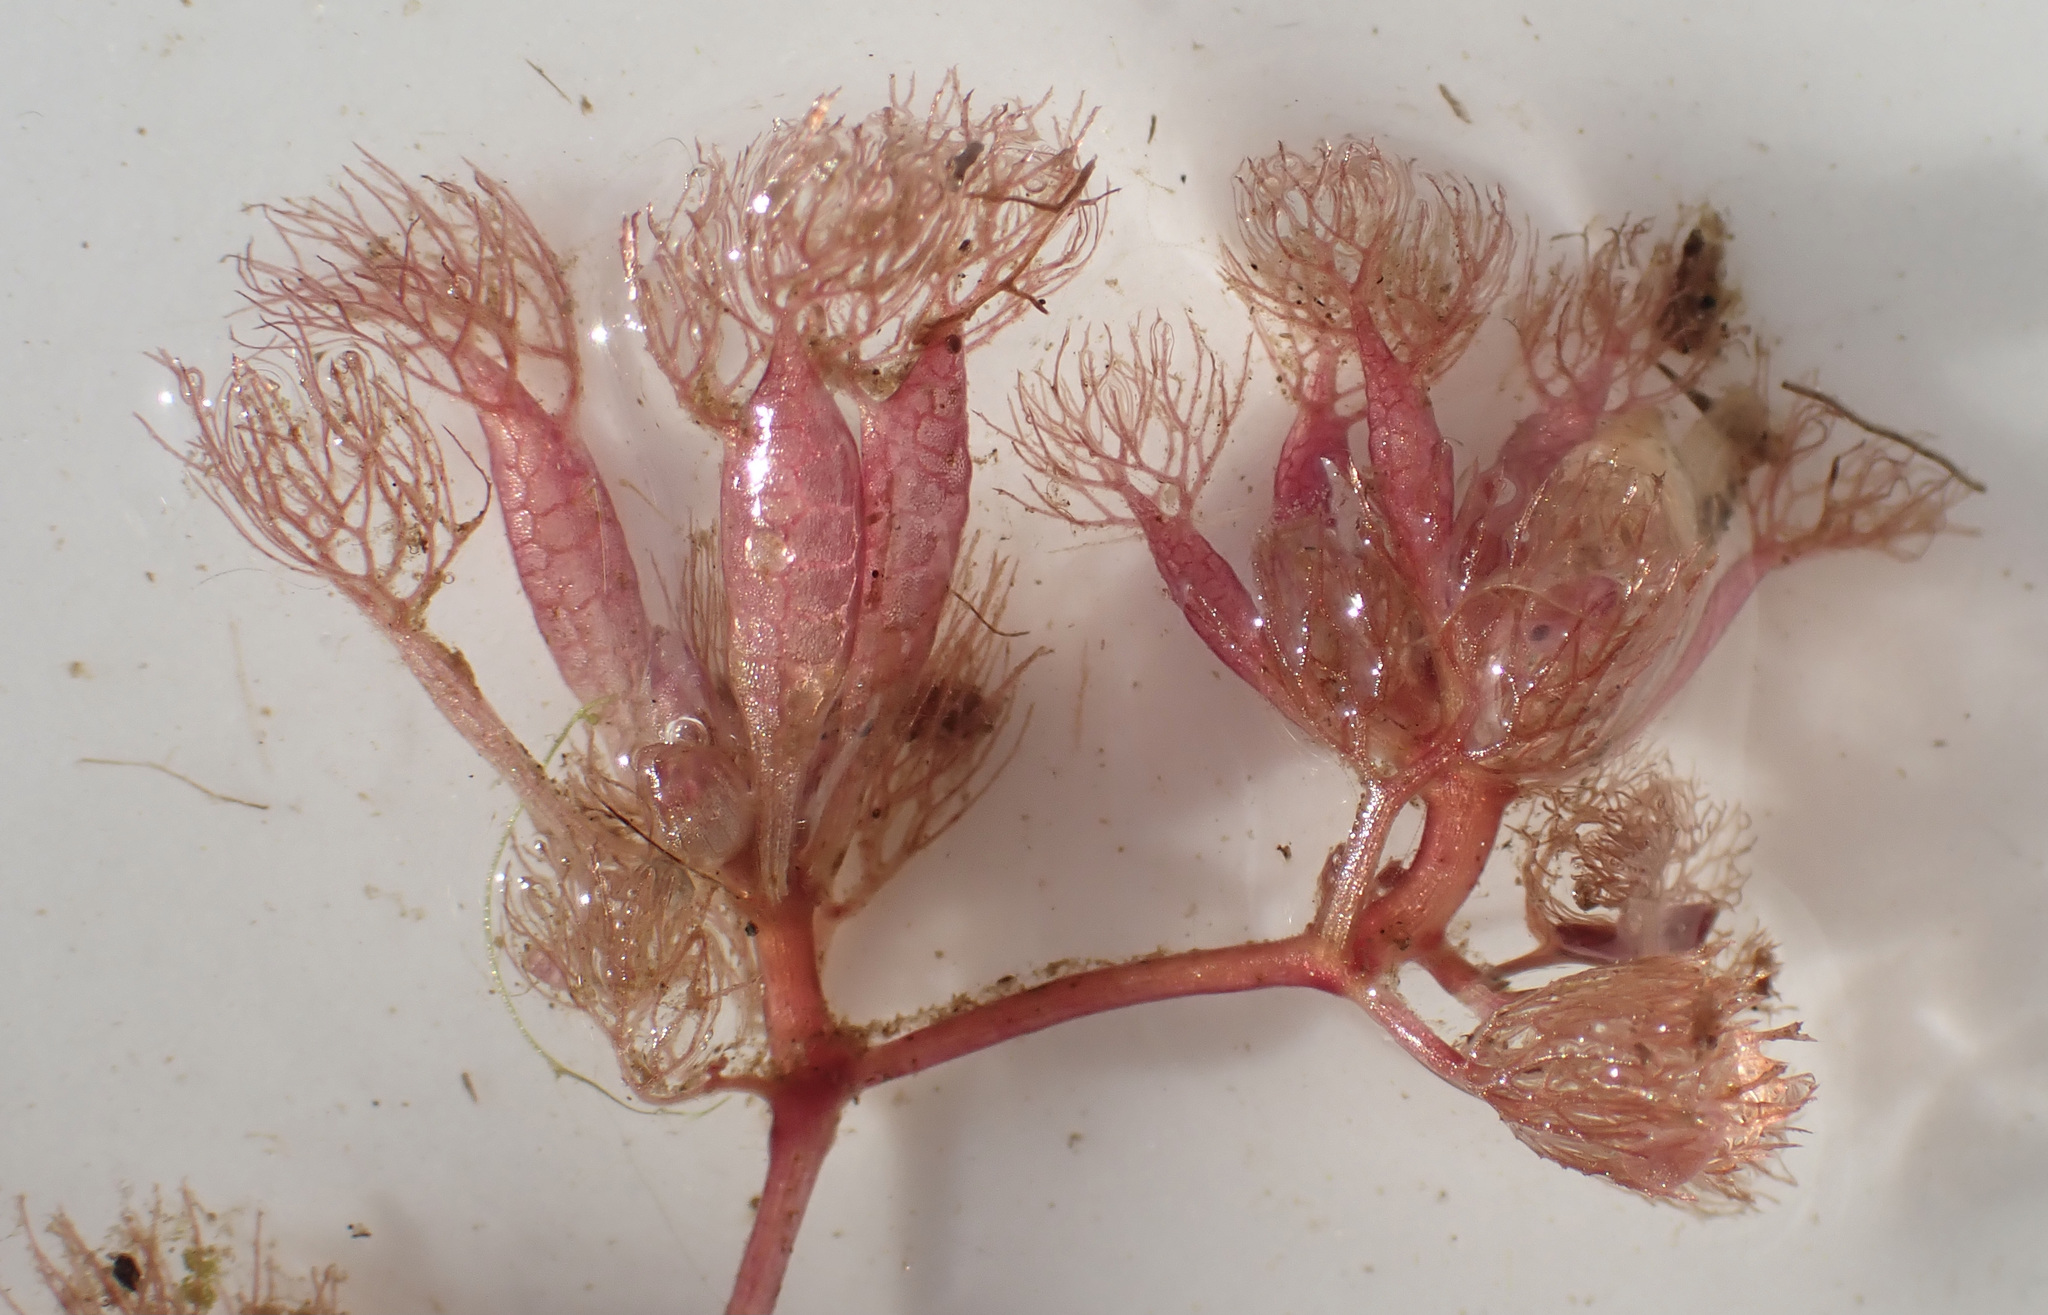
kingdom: Plantae
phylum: Tracheophyta
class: Magnoliopsida
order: Lamiales
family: Lentibulariaceae
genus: Utricularia
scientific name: Utricularia benjaminiana
